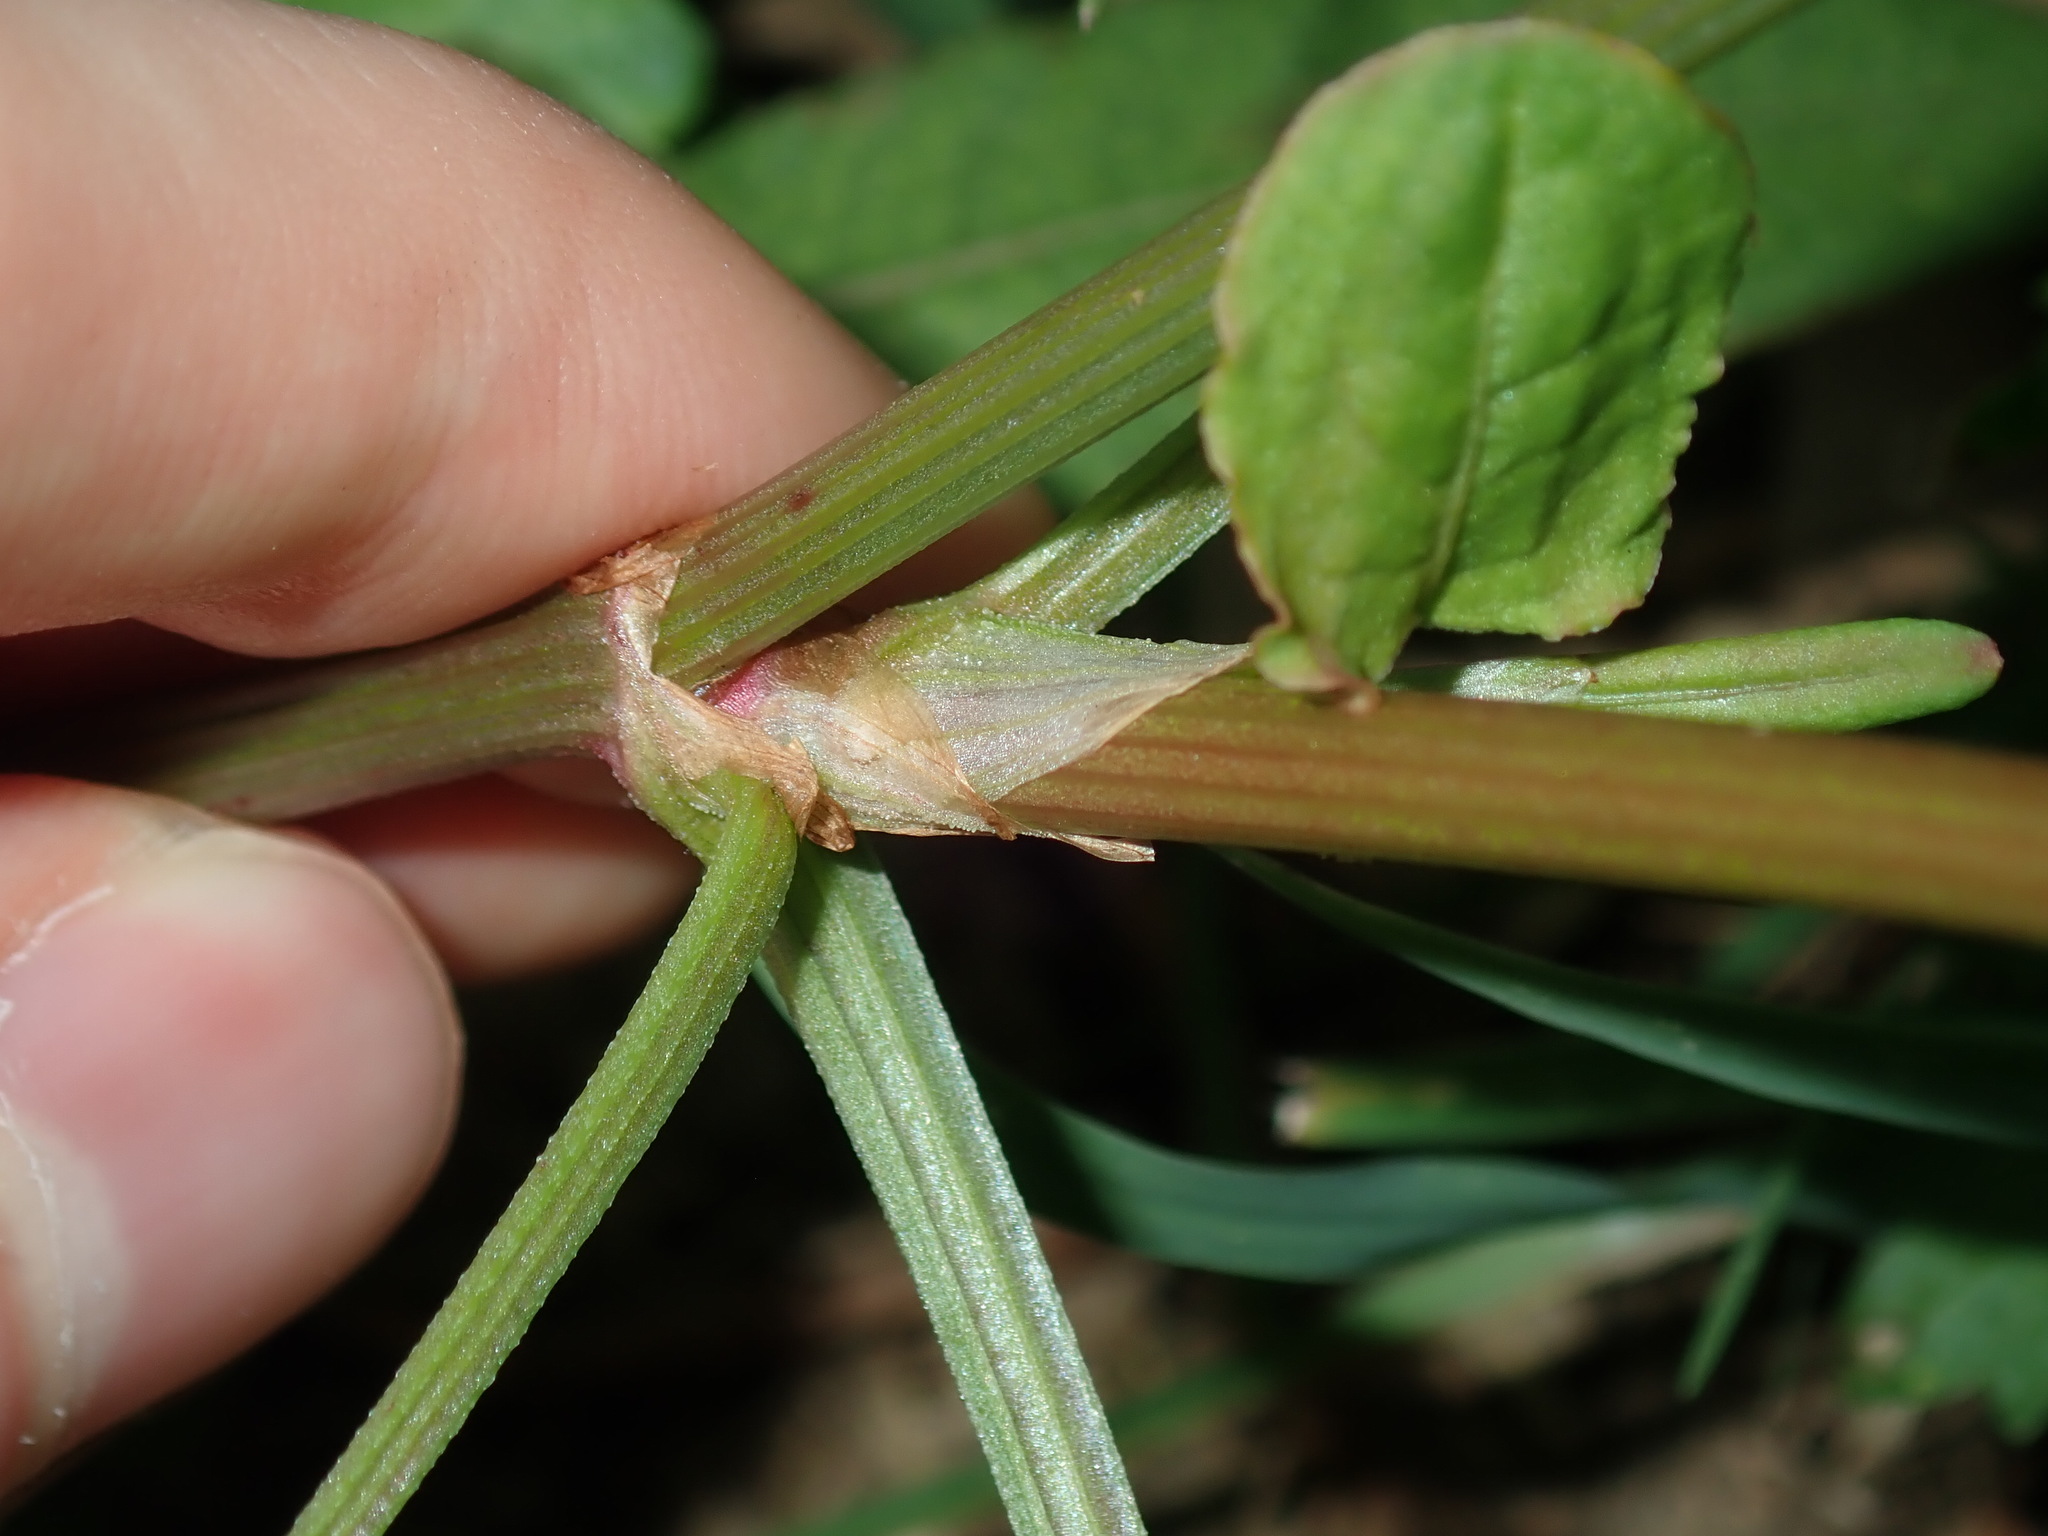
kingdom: Plantae
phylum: Tracheophyta
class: Magnoliopsida
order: Caryophyllales
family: Polygonaceae
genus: Rumex
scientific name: Rumex brownii
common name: Hooked dock
